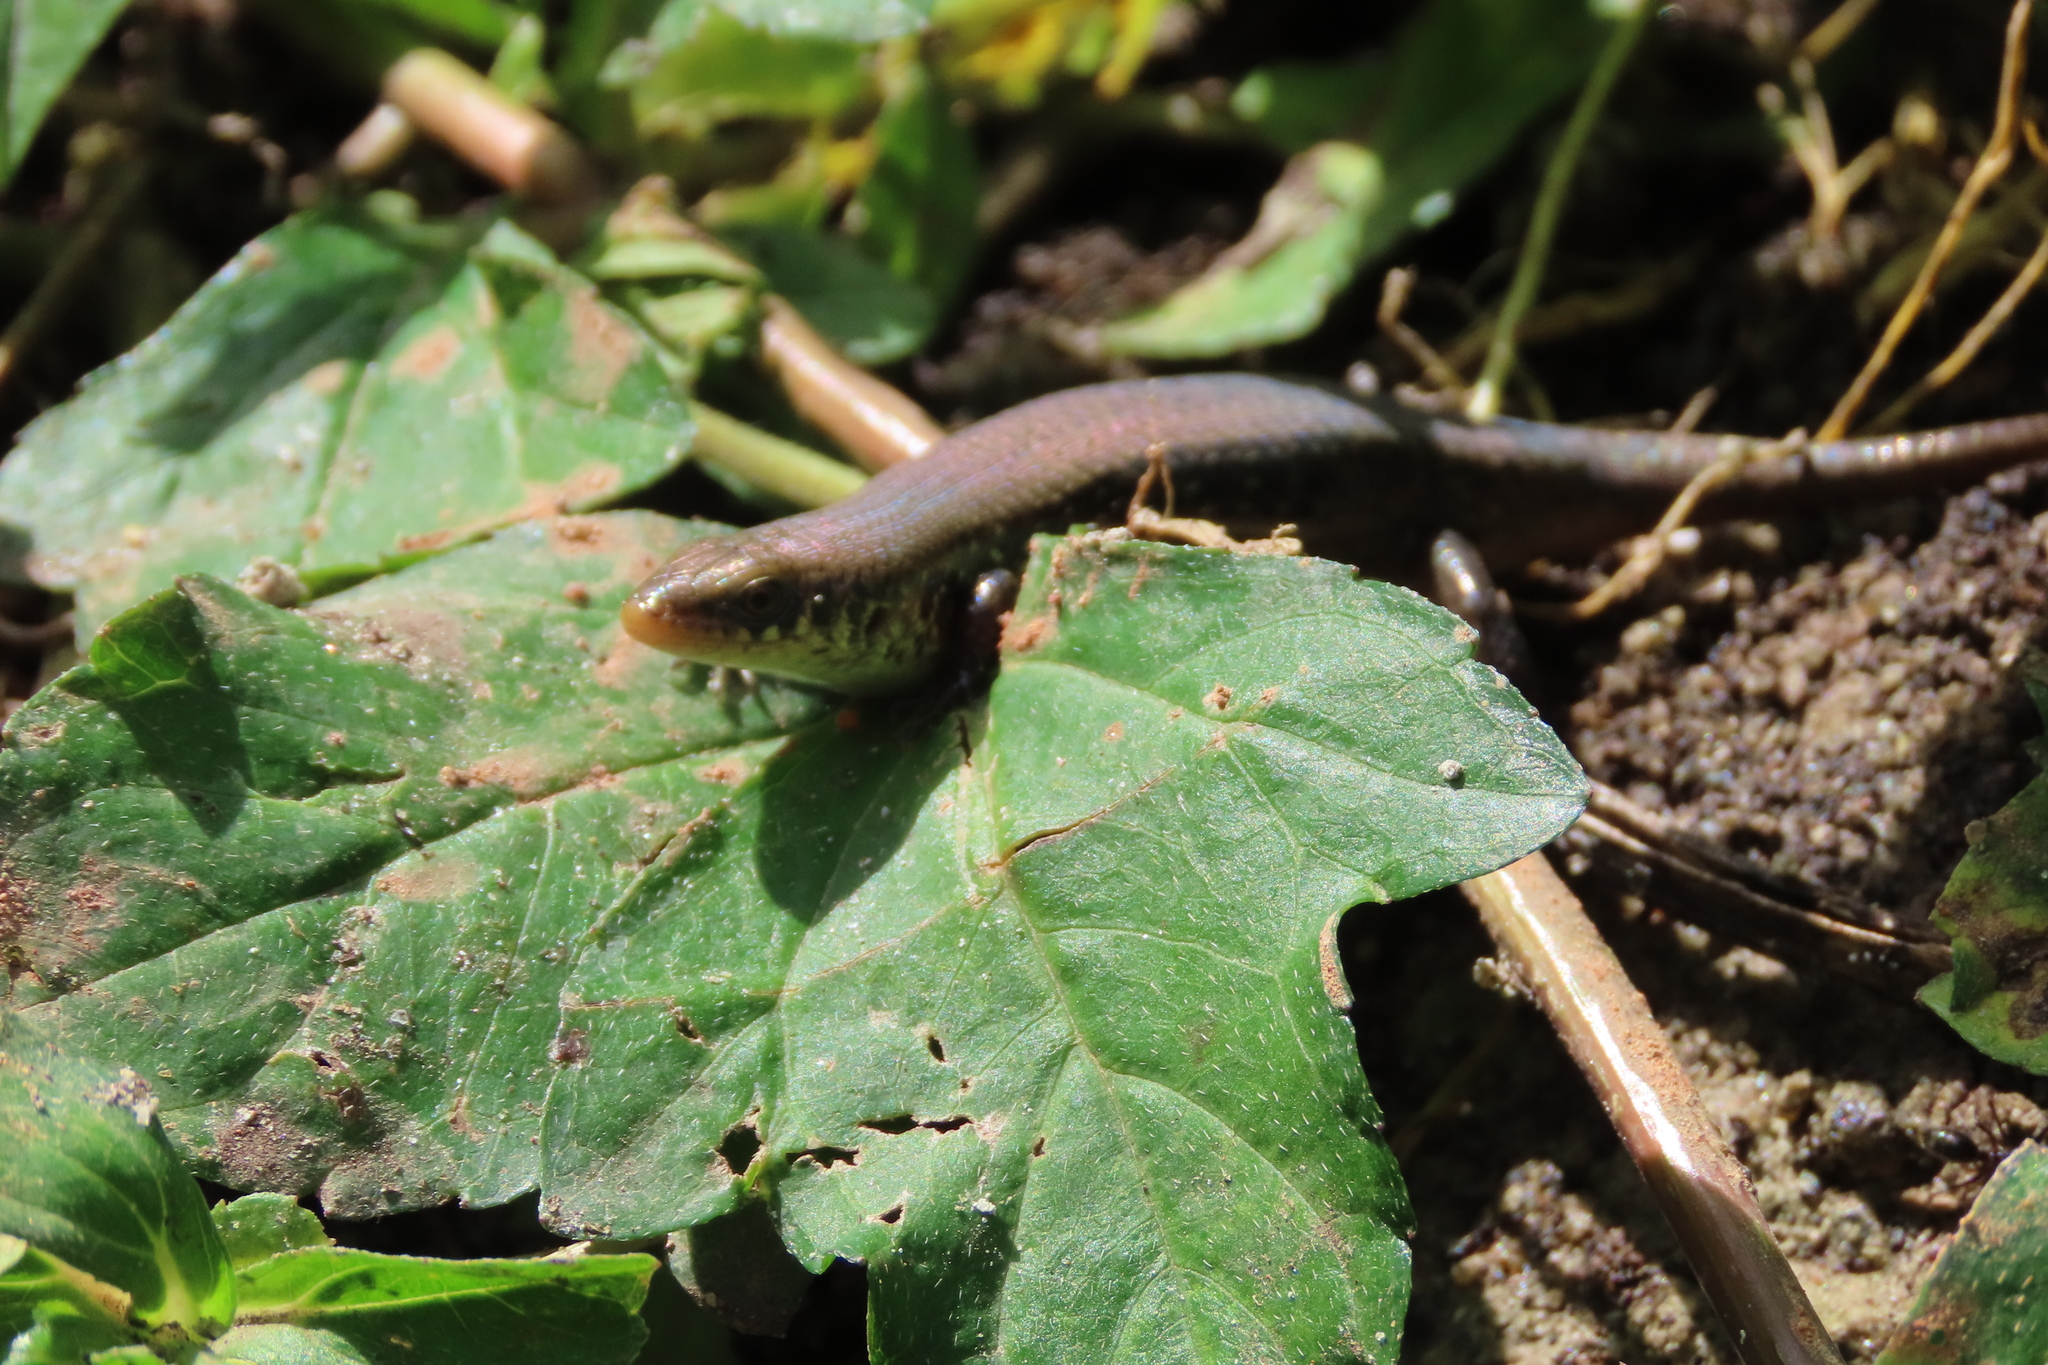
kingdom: Animalia
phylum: Chordata
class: Squamata
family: Scincidae
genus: Eutropis
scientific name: Eutropis carinata
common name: Keeled indian mabuya
